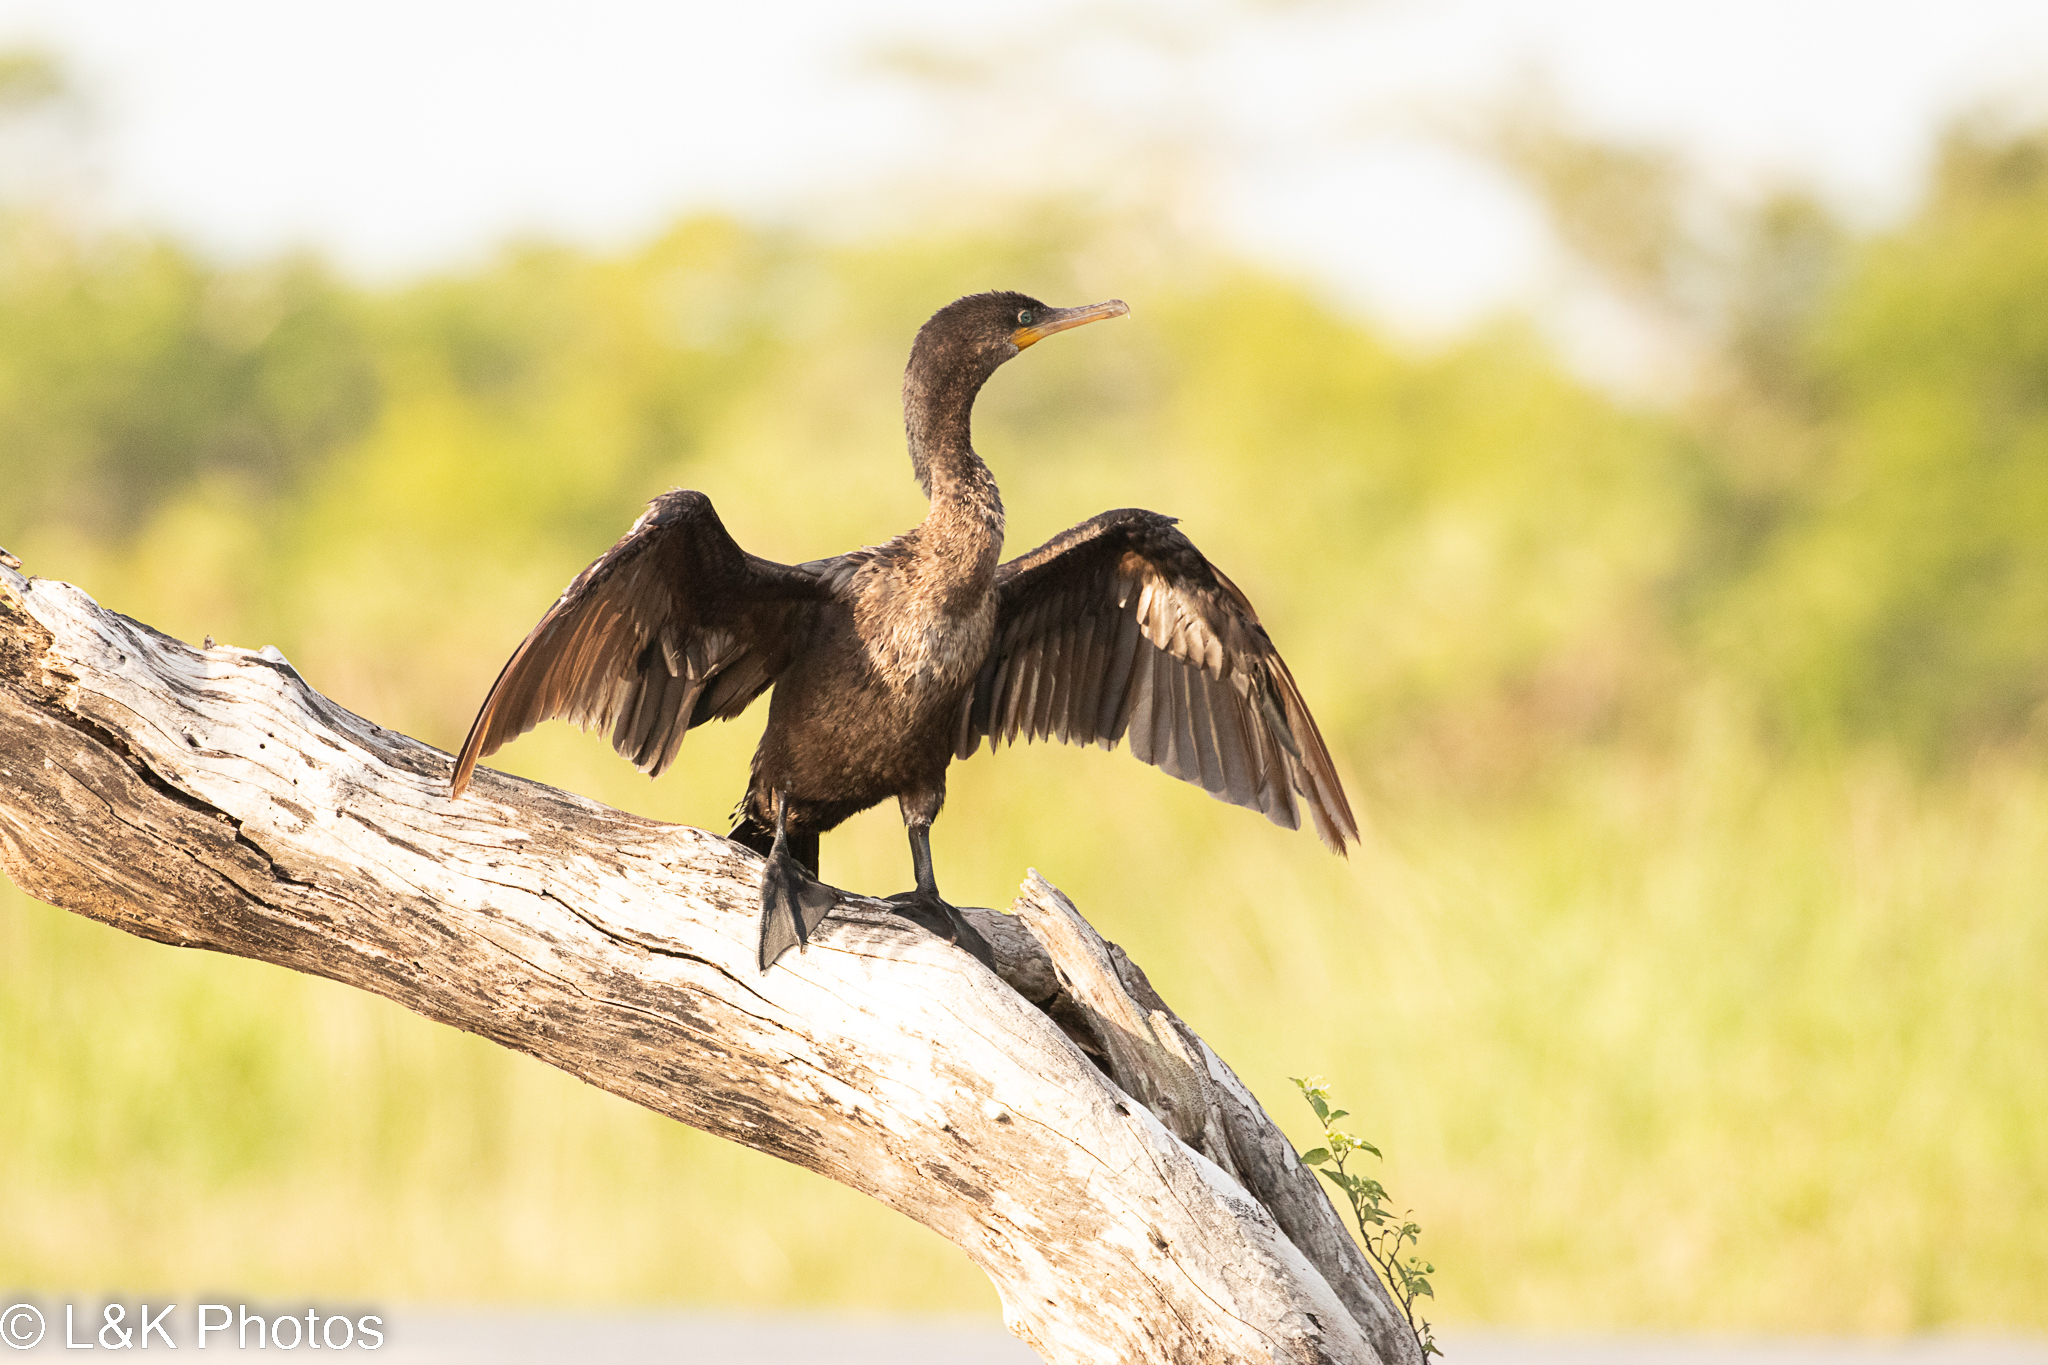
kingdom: Animalia
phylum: Chordata
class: Aves
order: Suliformes
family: Phalacrocoracidae
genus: Phalacrocorax
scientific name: Phalacrocorax auritus
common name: Double-crested cormorant
